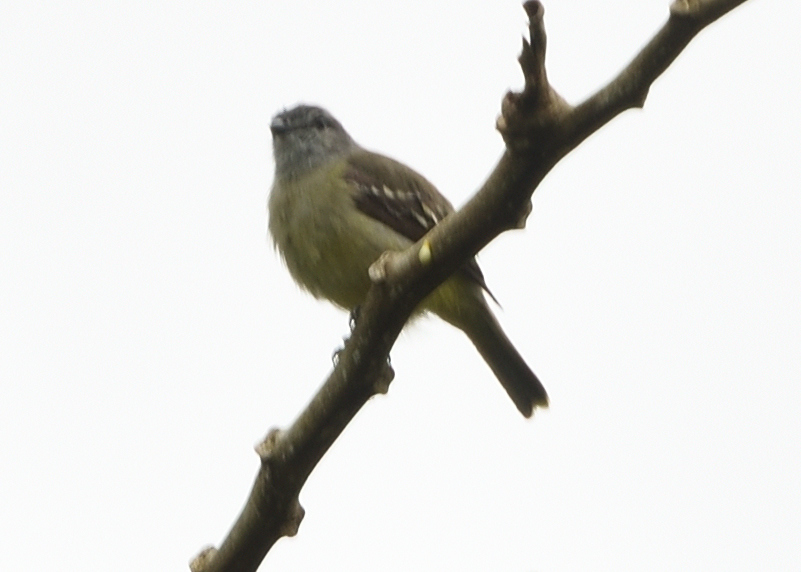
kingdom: Animalia
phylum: Chordata
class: Aves
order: Passeriformes
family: Tyrannidae
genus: Tyrannulus
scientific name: Tyrannulus elatus
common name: Yellow-crowned tyrannulet
